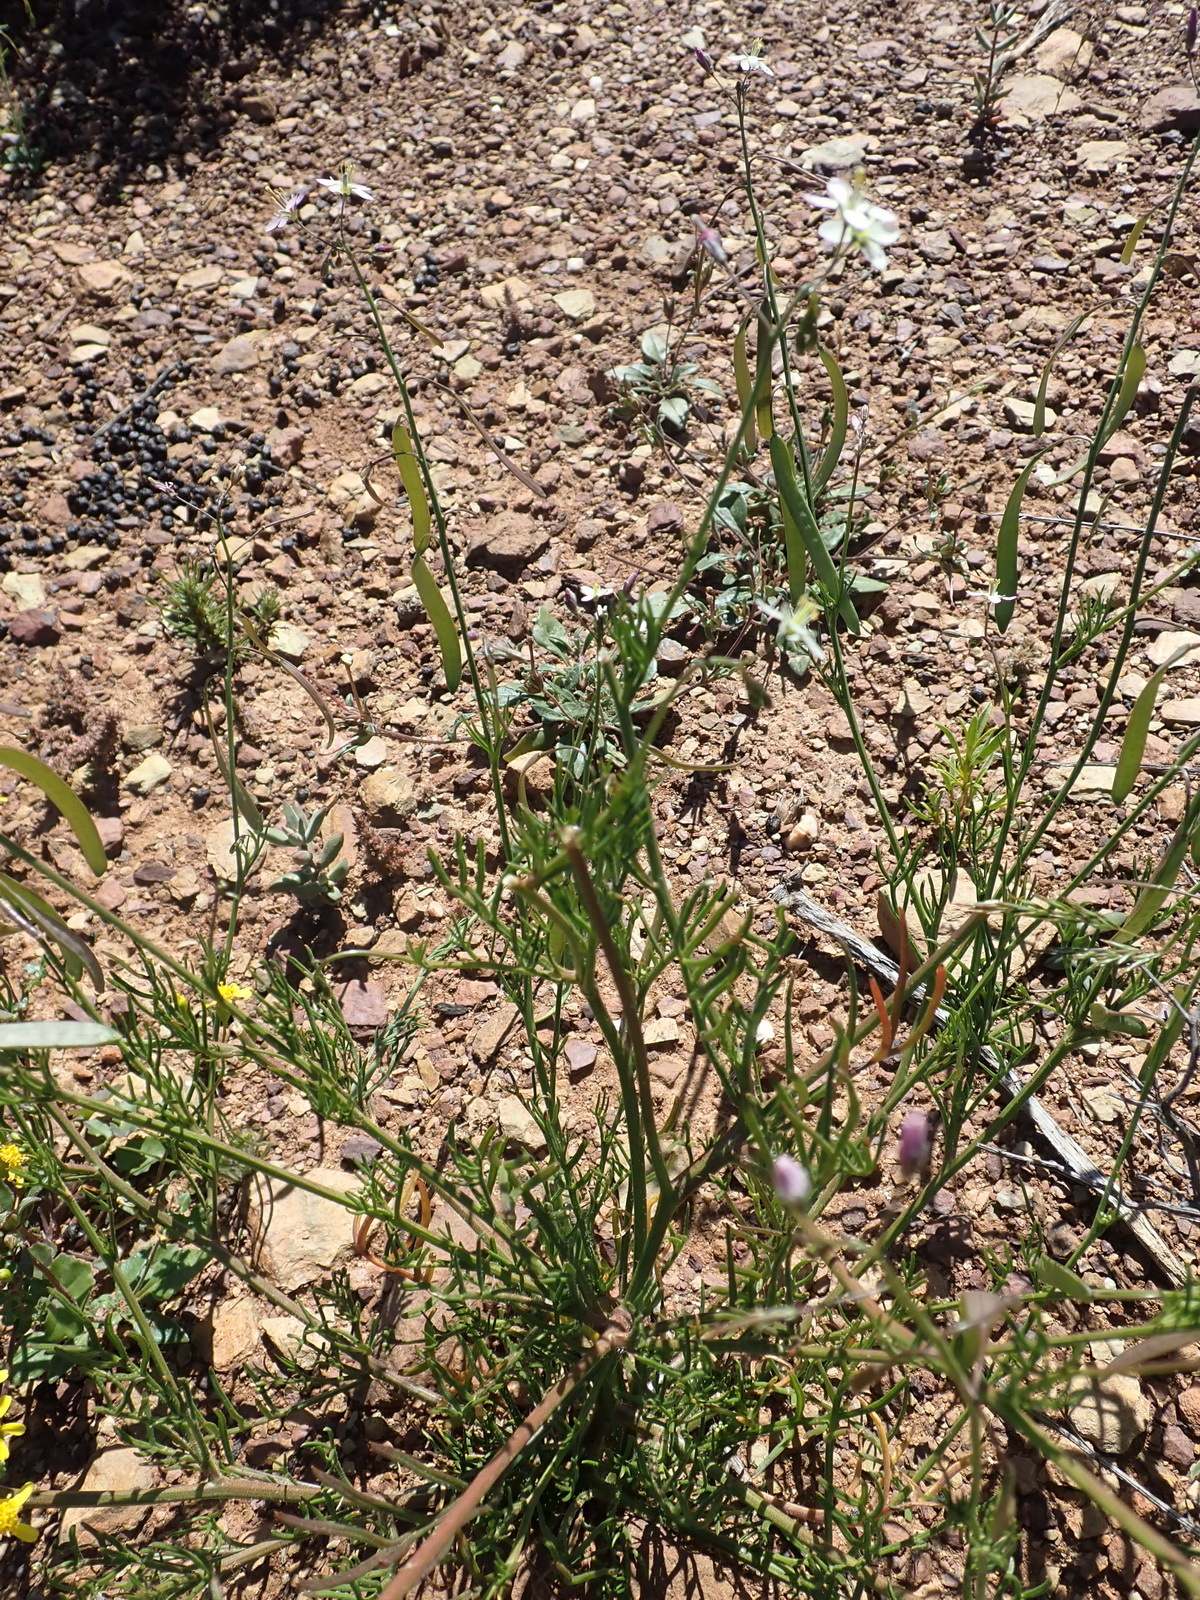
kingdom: Plantae
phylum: Tracheophyta
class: Magnoliopsida
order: Brassicales
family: Brassicaceae
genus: Heliophila
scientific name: Heliophila crithmifolia
